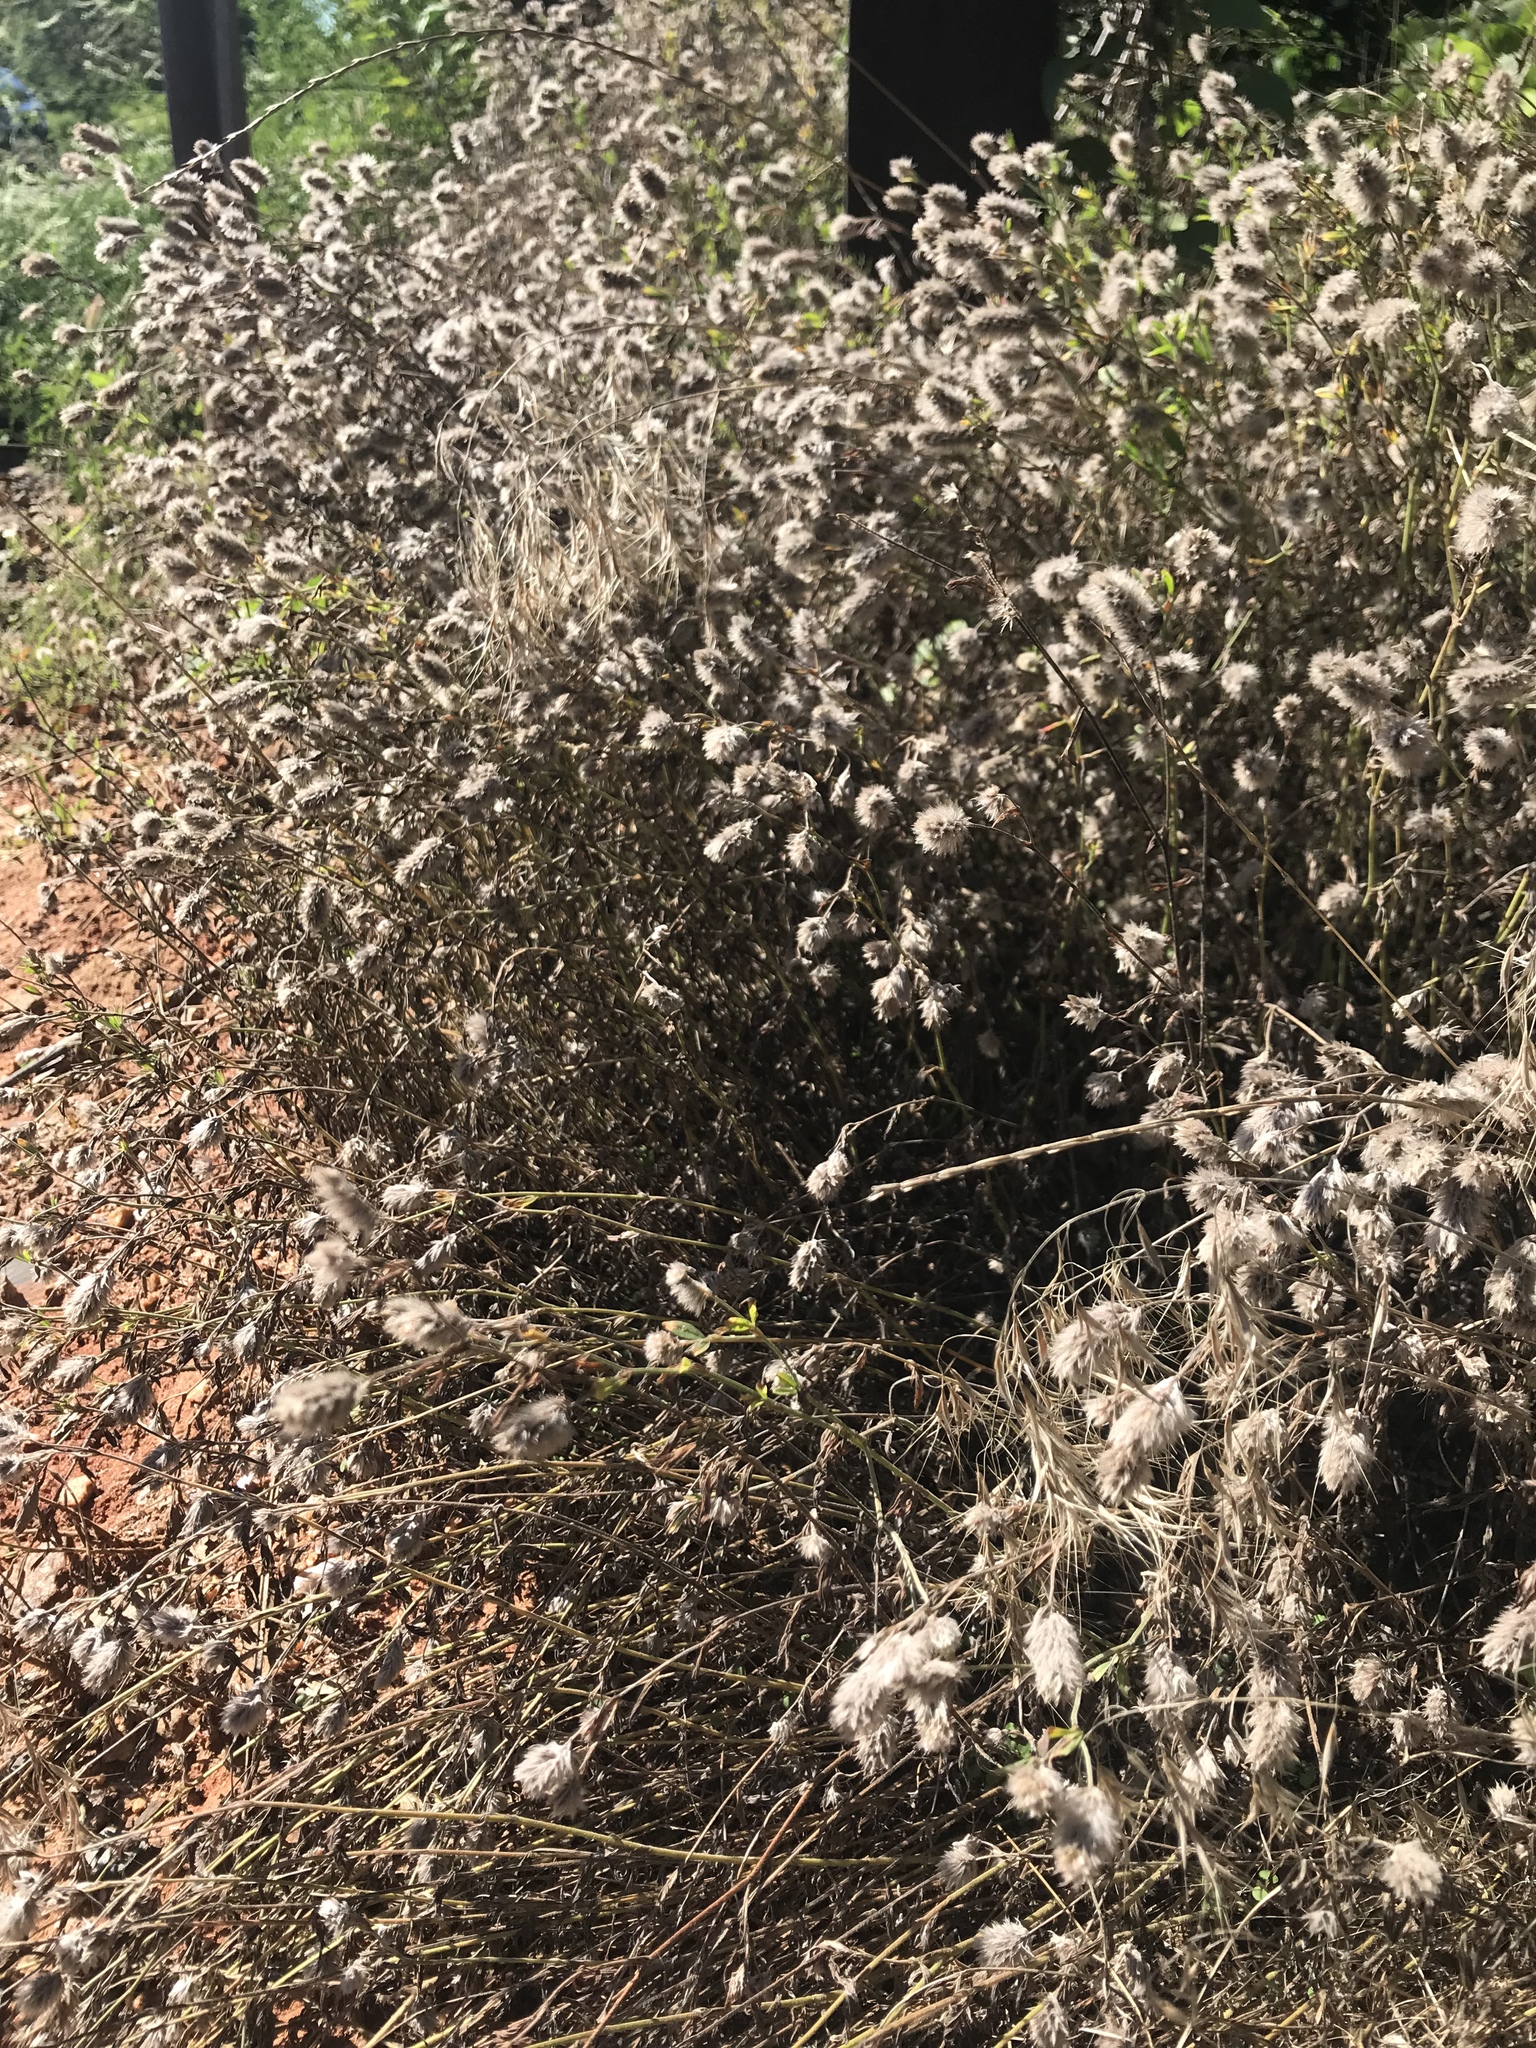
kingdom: Plantae
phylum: Tracheophyta
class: Magnoliopsida
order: Fabales
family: Fabaceae
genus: Trifolium
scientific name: Trifolium arvense
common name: Hare's-foot clover
